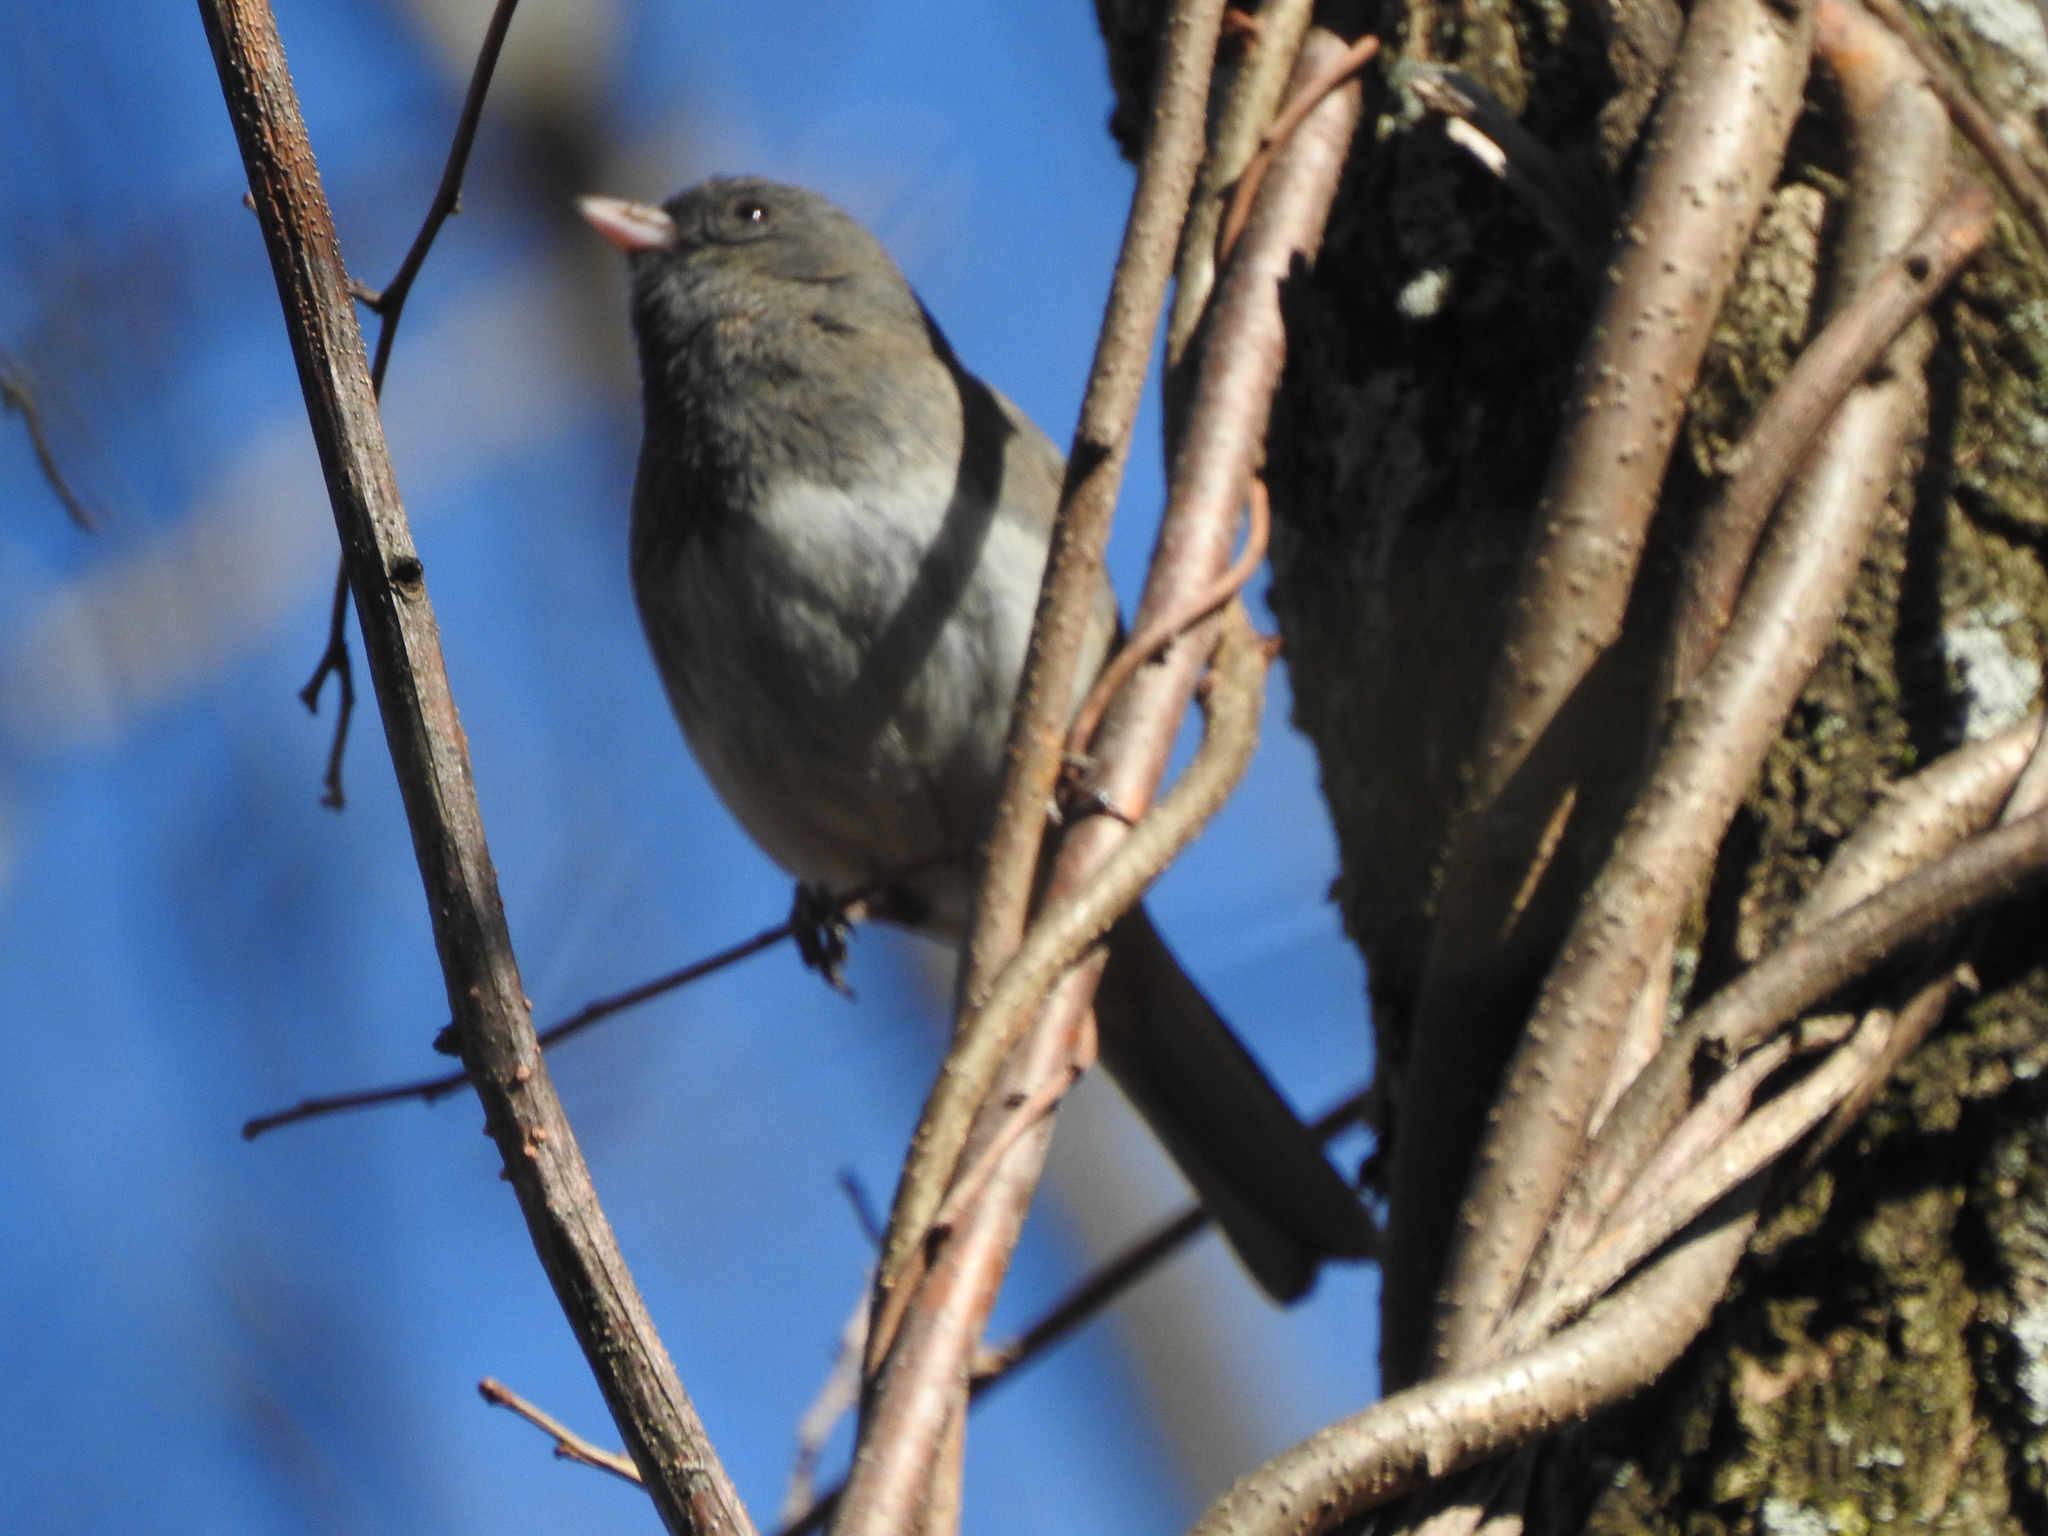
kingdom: Animalia
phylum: Chordata
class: Aves
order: Passeriformes
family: Passerellidae
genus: Junco
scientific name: Junco hyemalis
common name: Dark-eyed junco
